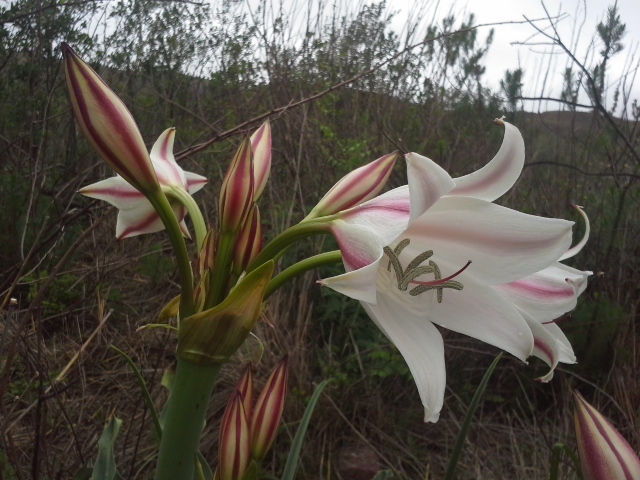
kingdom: Plantae
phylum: Tracheophyta
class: Liliopsida
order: Asparagales
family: Amaryllidaceae
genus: Crinum
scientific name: Crinum macowanii
